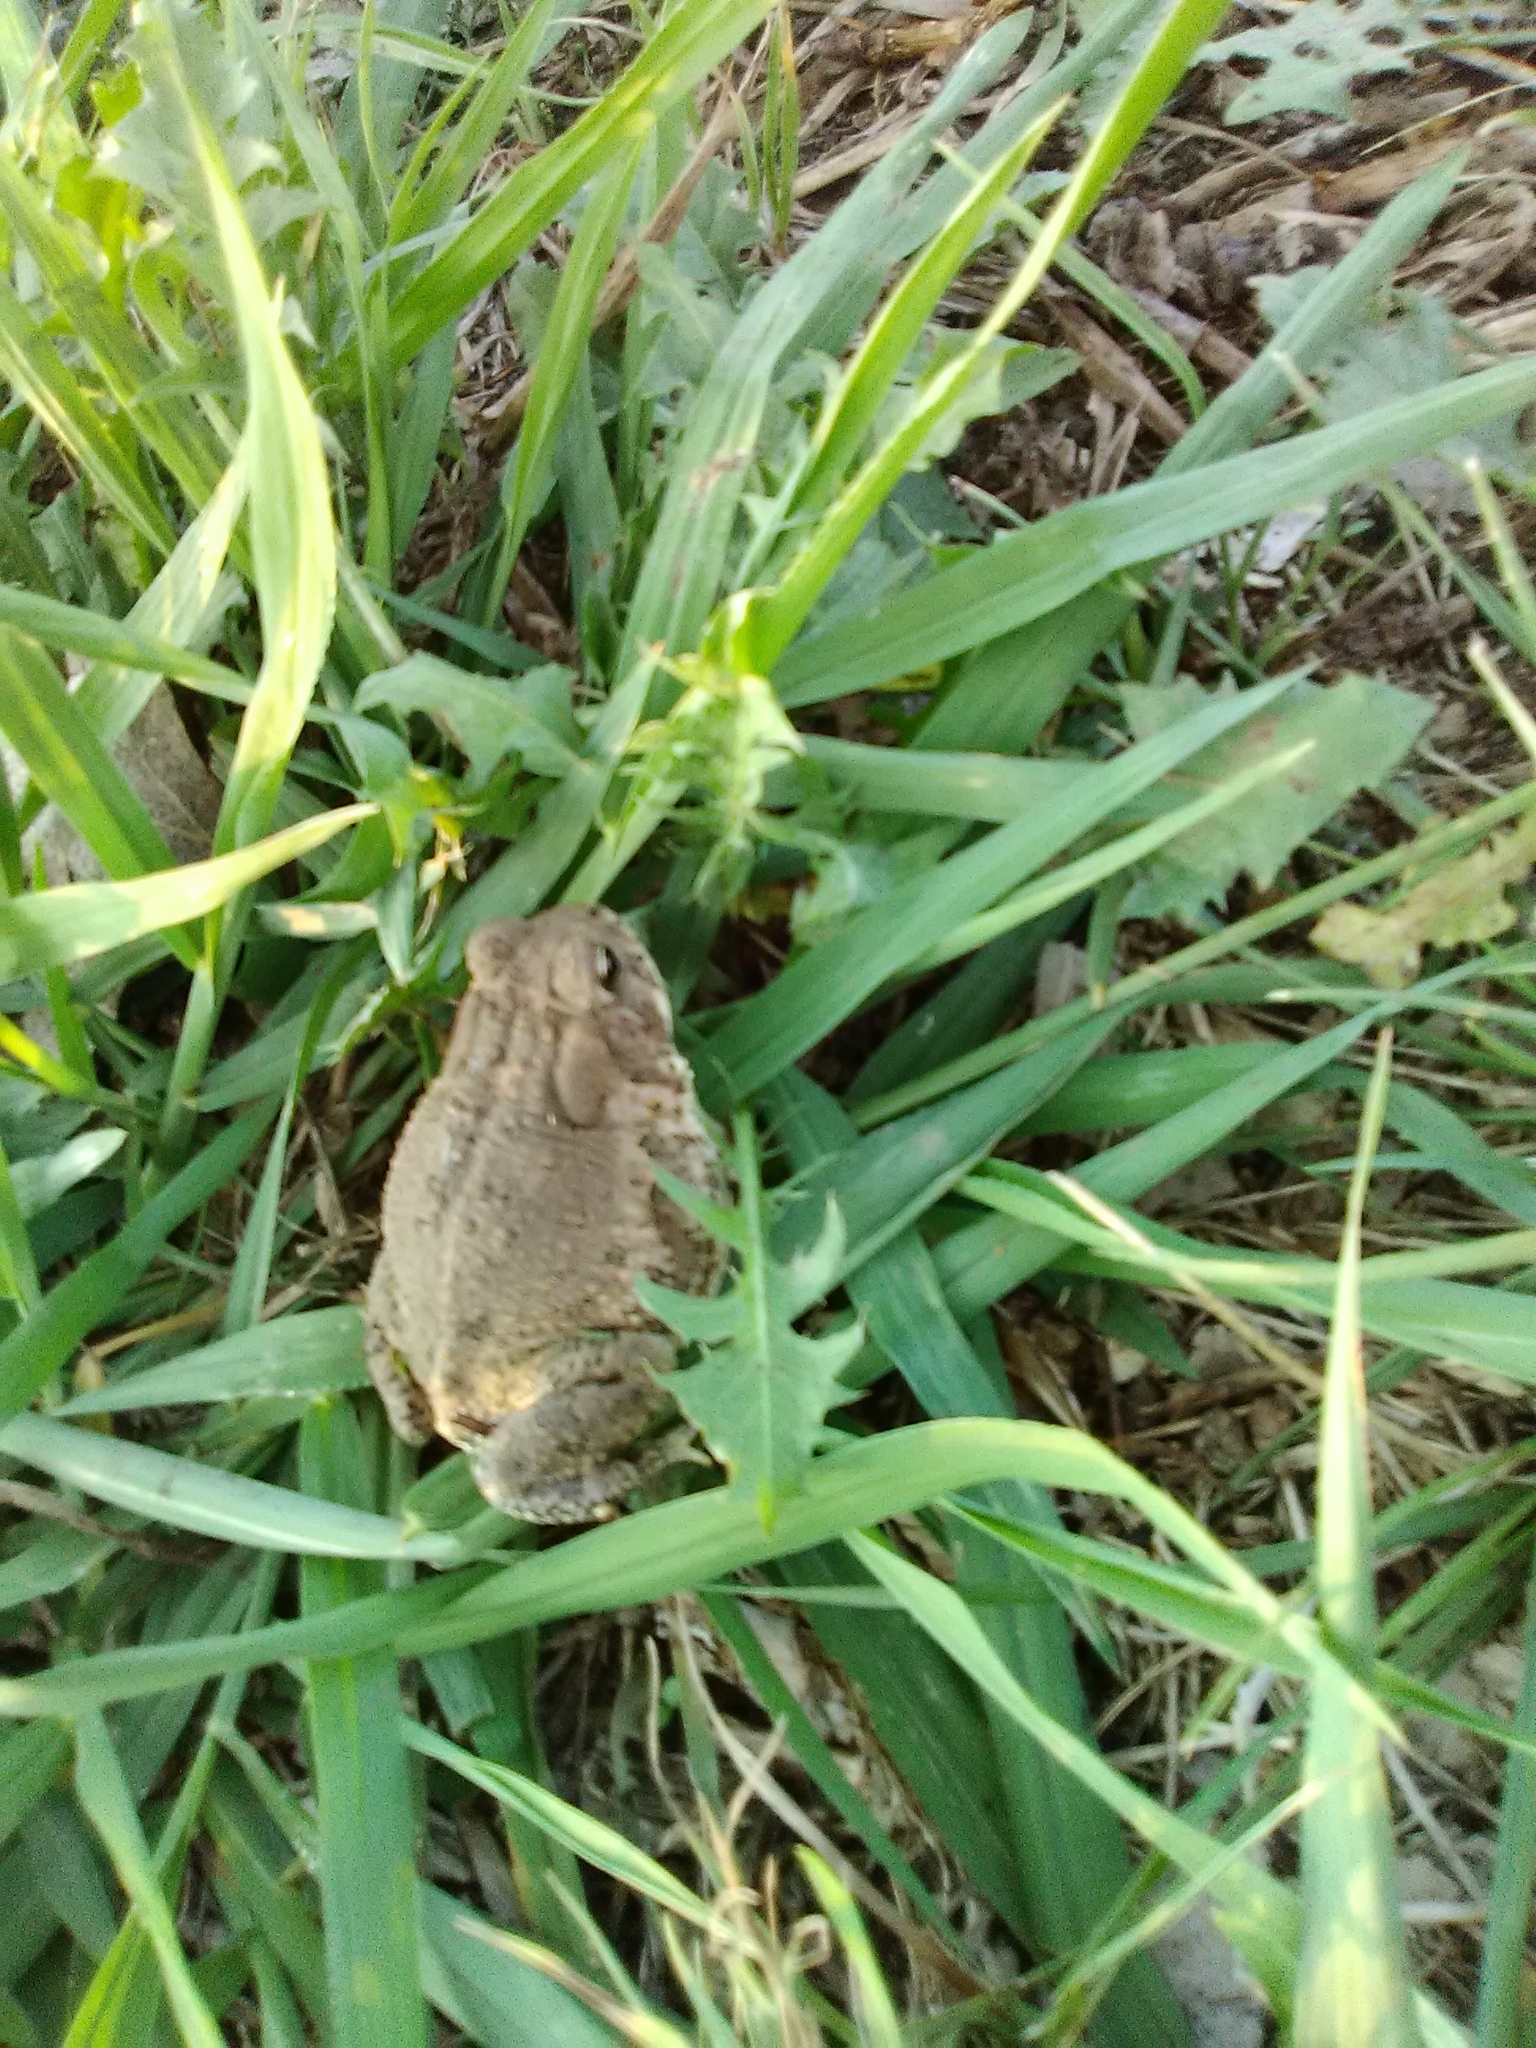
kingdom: Animalia
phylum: Chordata
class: Amphibia
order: Anura
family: Bufonidae
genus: Anaxyrus
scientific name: Anaxyrus woodhousii
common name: Woodhouse's toad
